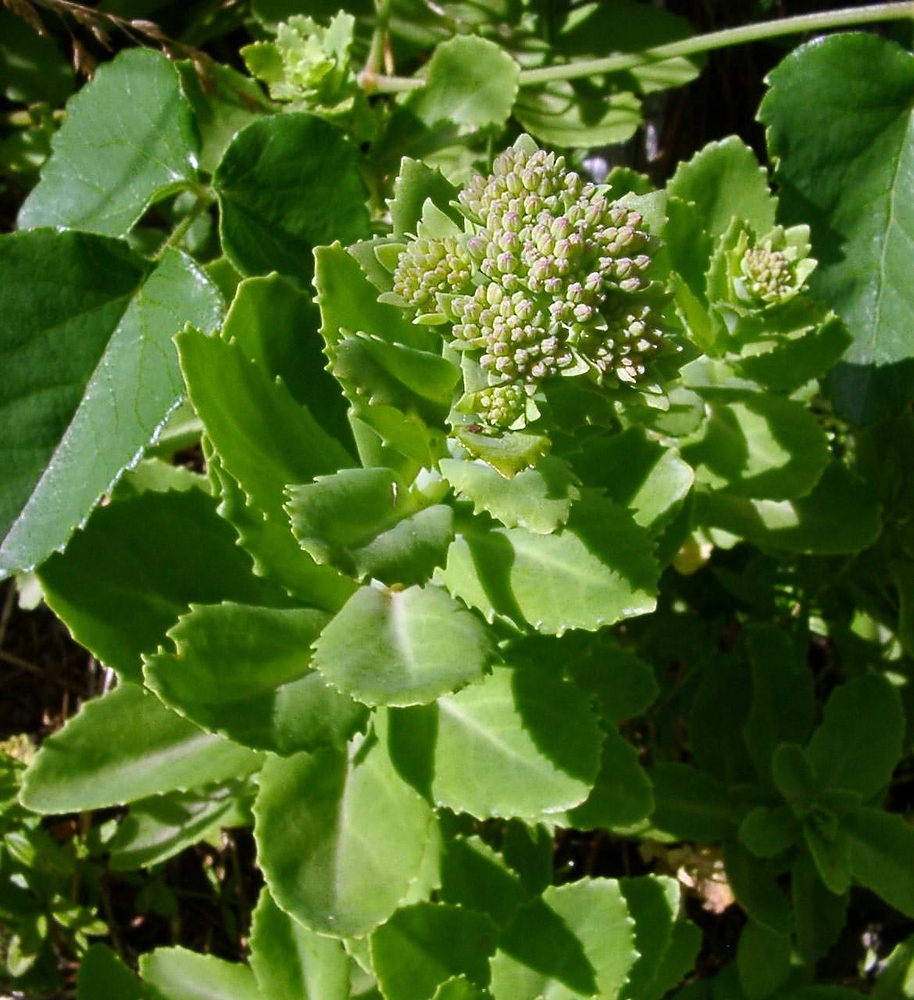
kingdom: Plantae
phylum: Tracheophyta
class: Magnoliopsida
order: Saxifragales
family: Crassulaceae
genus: Hylotelephium
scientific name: Hylotelephium telephium
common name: Live-forever
